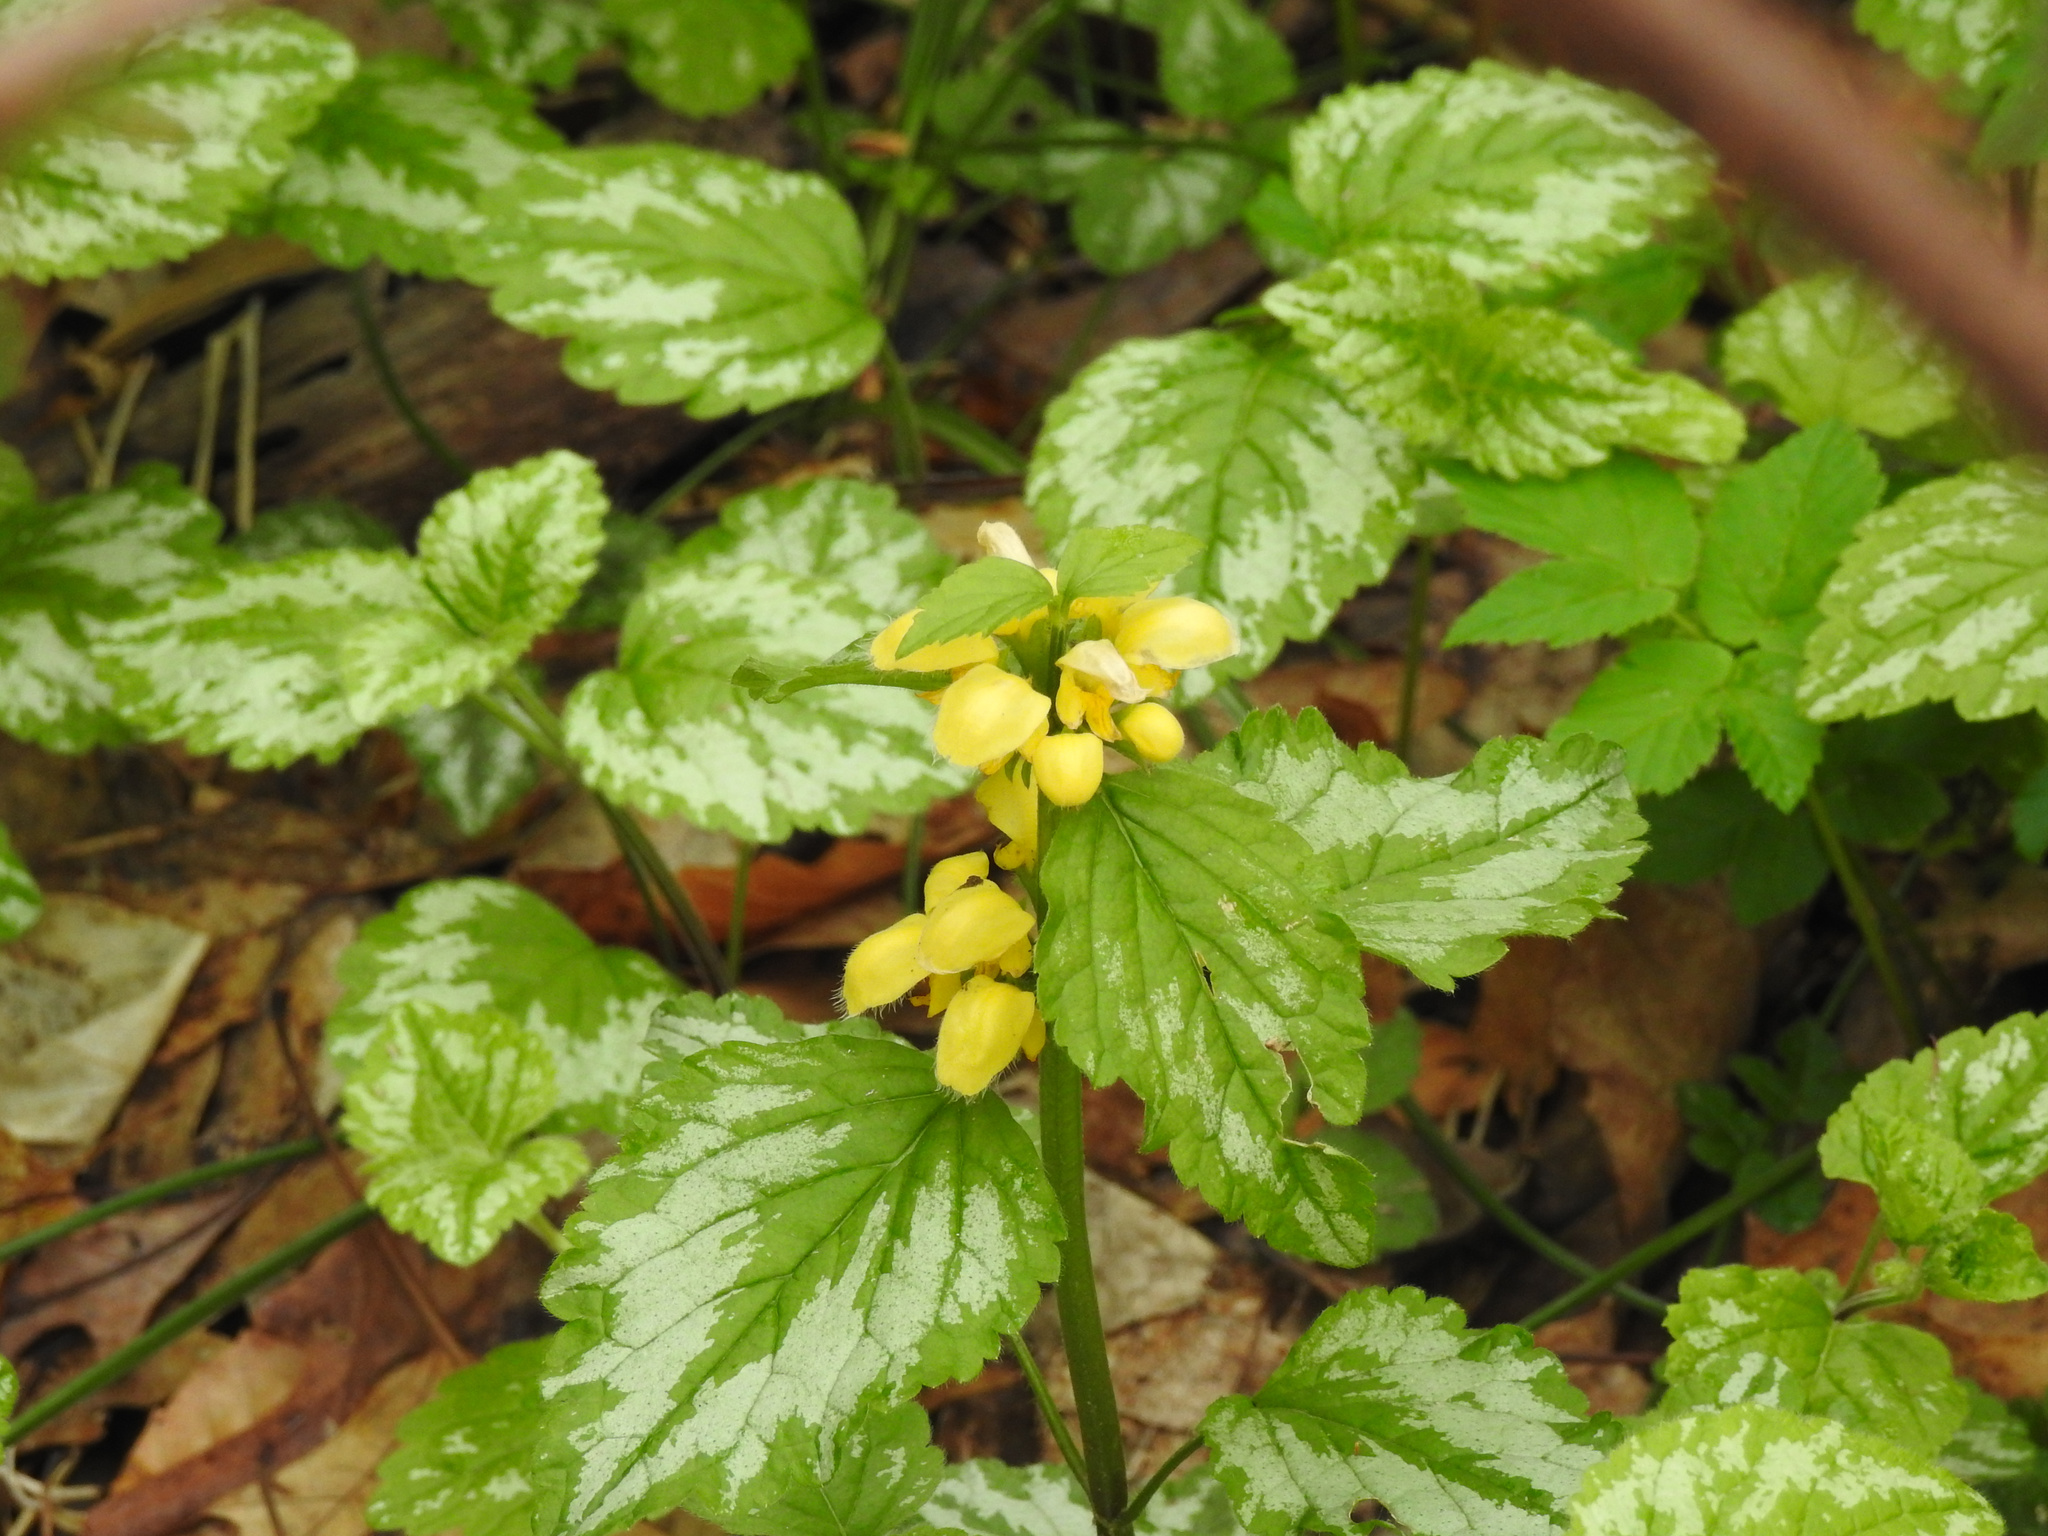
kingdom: Plantae
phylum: Tracheophyta
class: Magnoliopsida
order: Lamiales
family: Lamiaceae
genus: Lamium
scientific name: Lamium galeobdolon
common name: Yellow archangel
